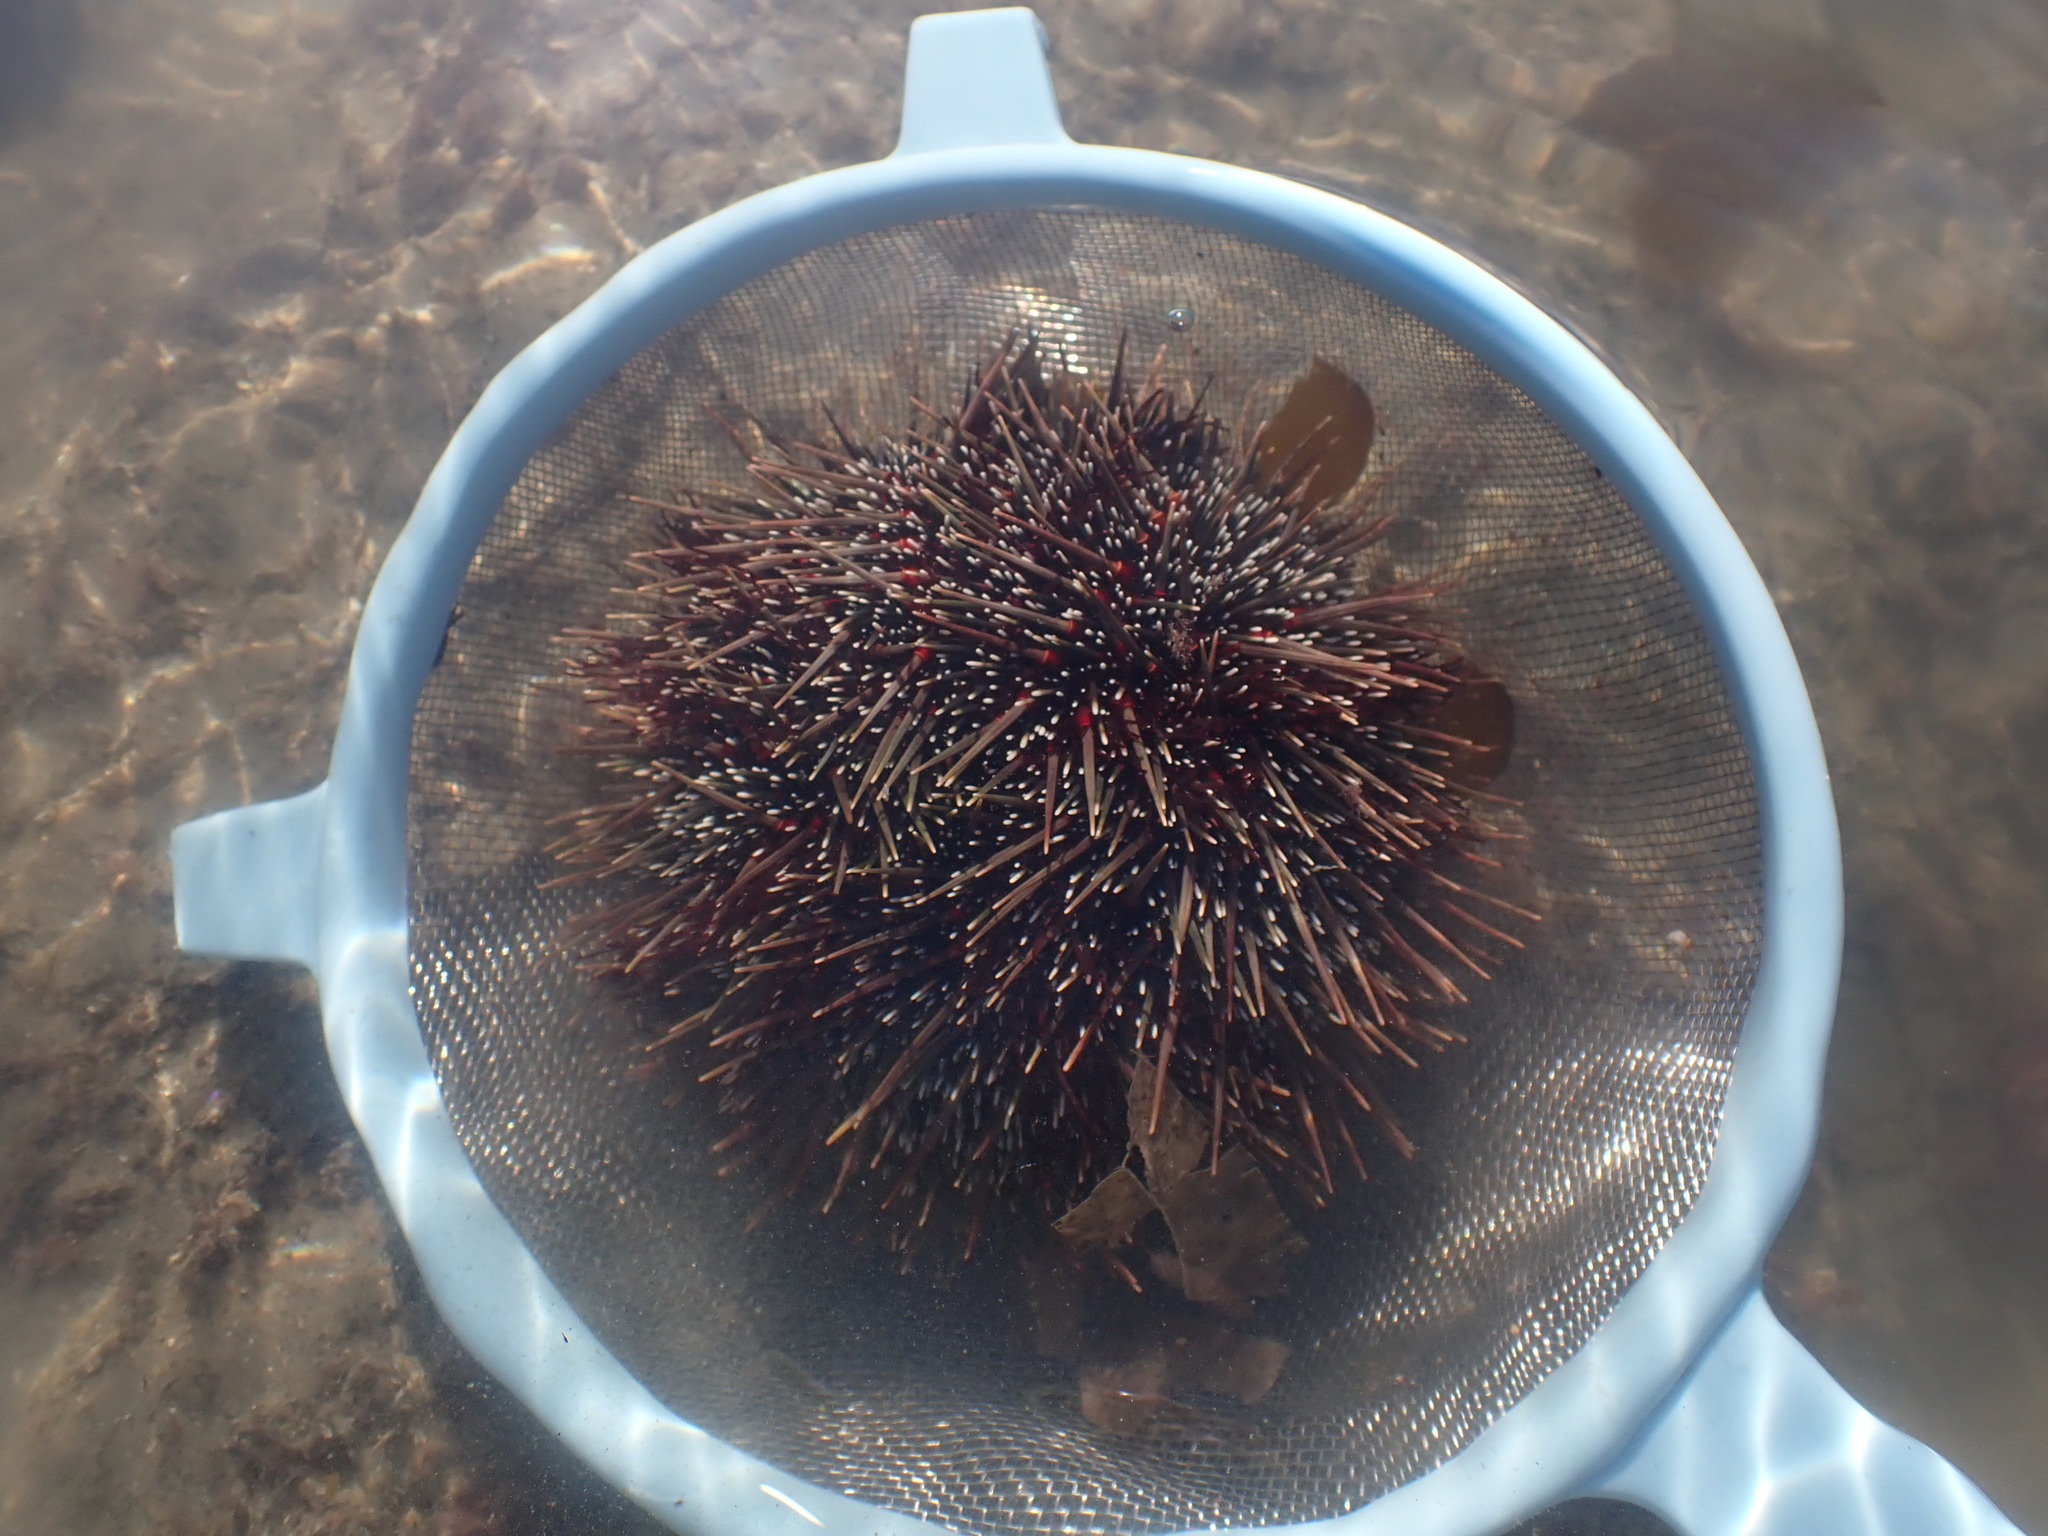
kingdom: Animalia
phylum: Echinodermata
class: Echinoidea
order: Camarodonta
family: Echinometridae
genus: Evechinus
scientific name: Evechinus chloroticus
